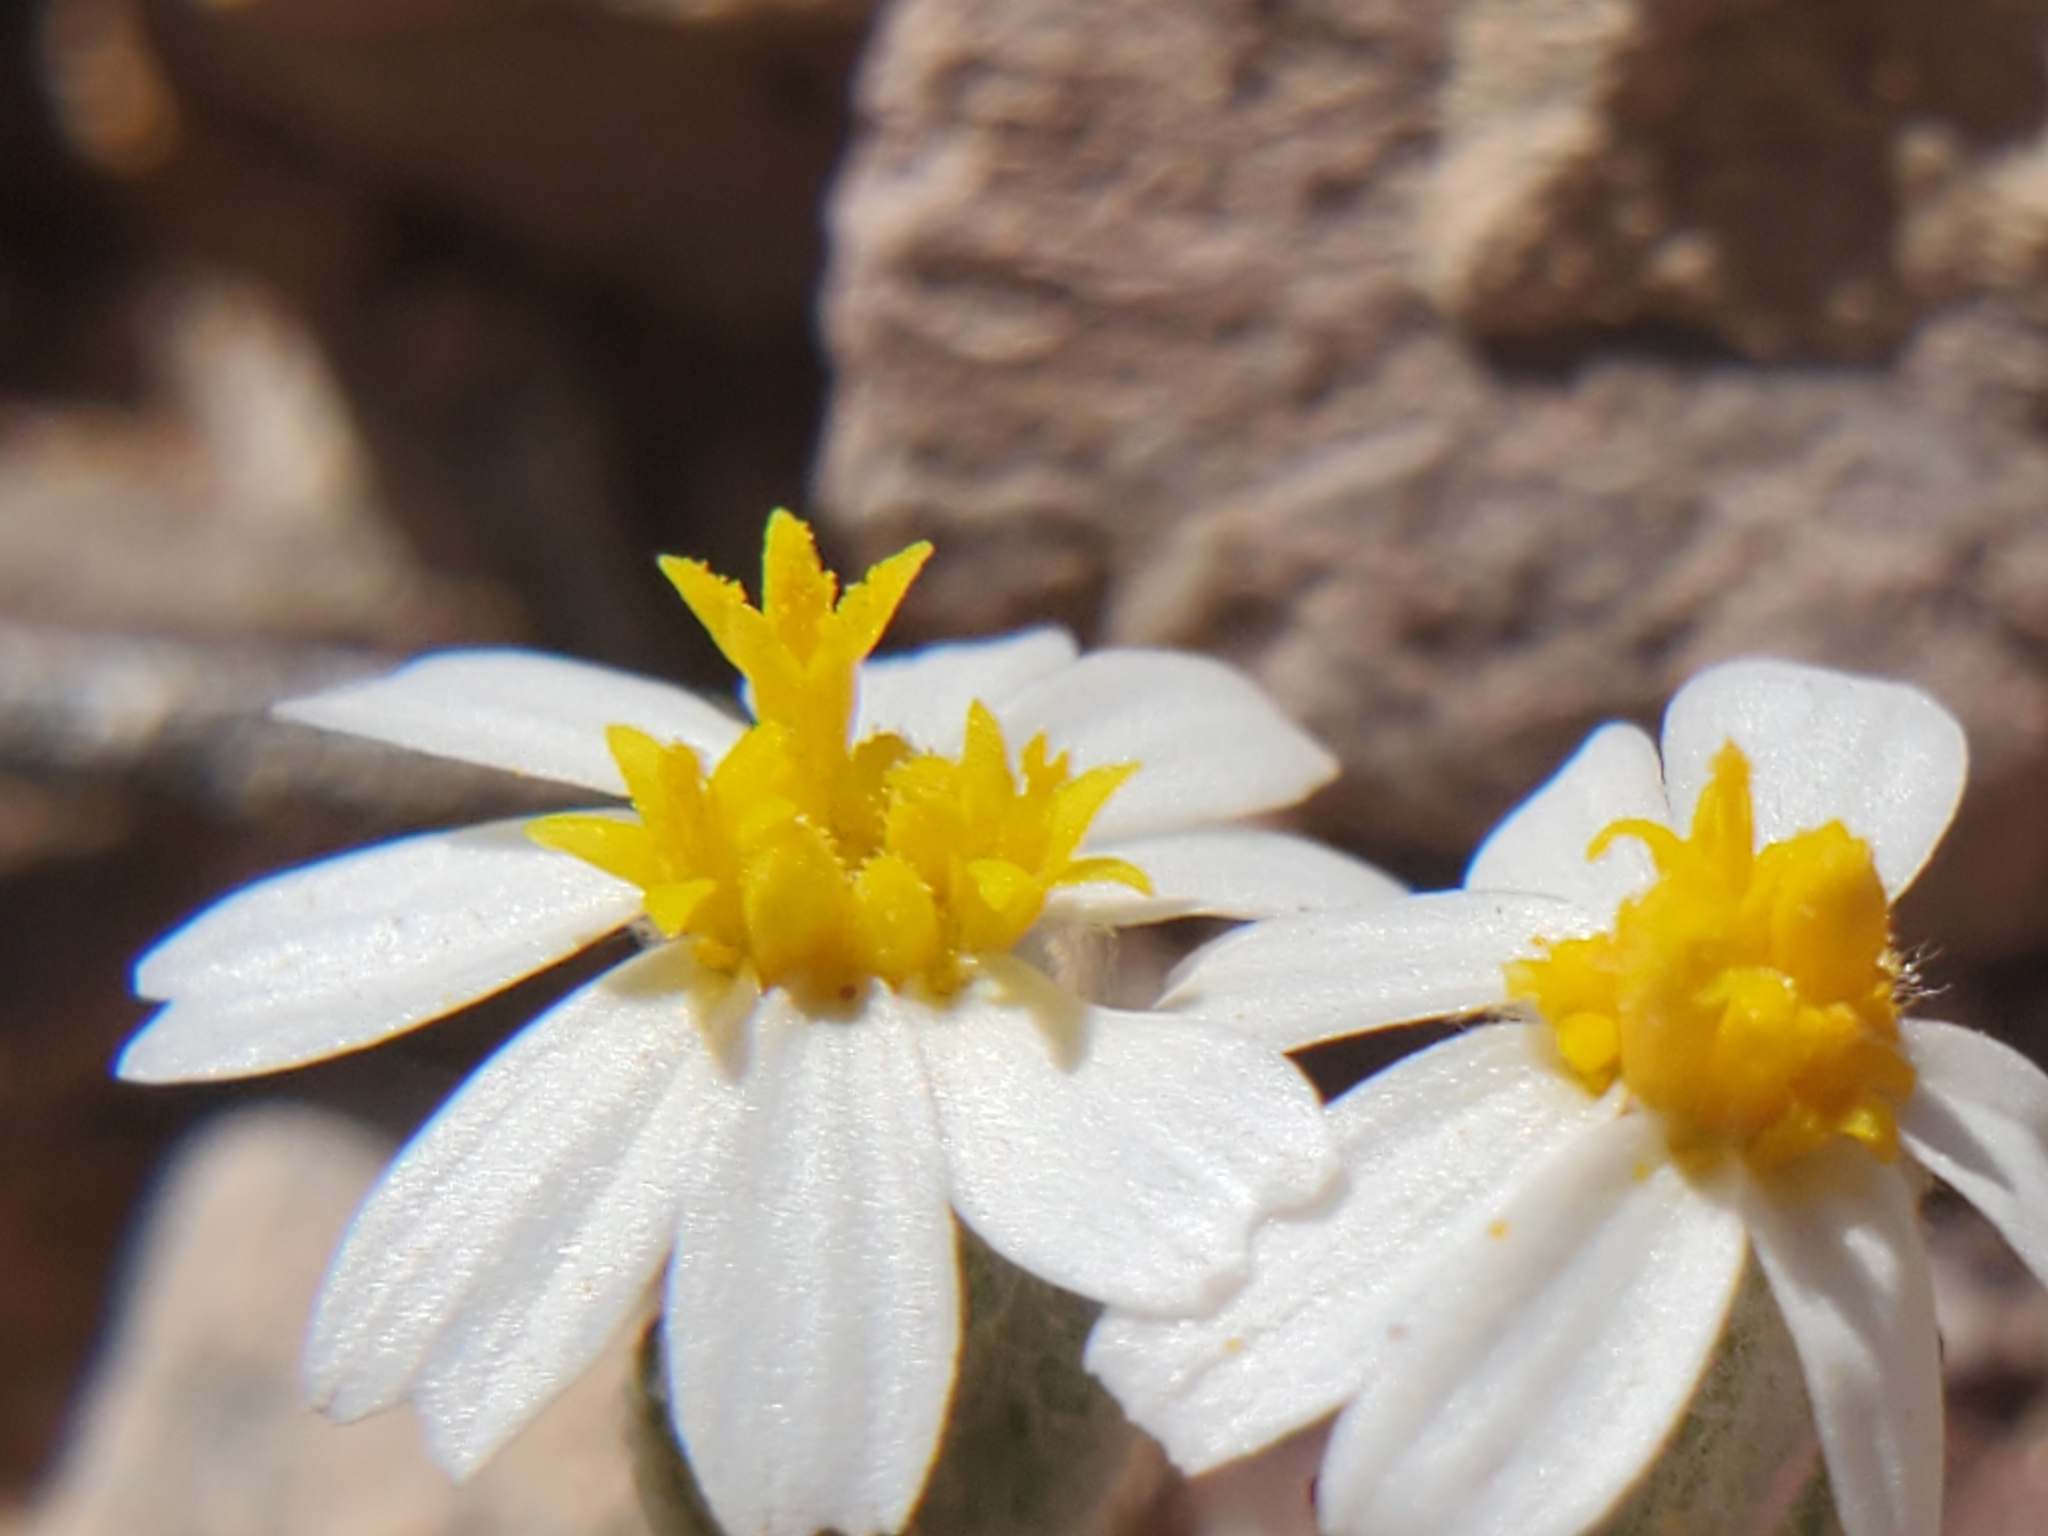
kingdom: Plantae
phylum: Tracheophyta
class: Magnoliopsida
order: Asterales
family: Asteraceae
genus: Eriophyllum
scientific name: Eriophyllum lanosum
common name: White easter-bonnets
